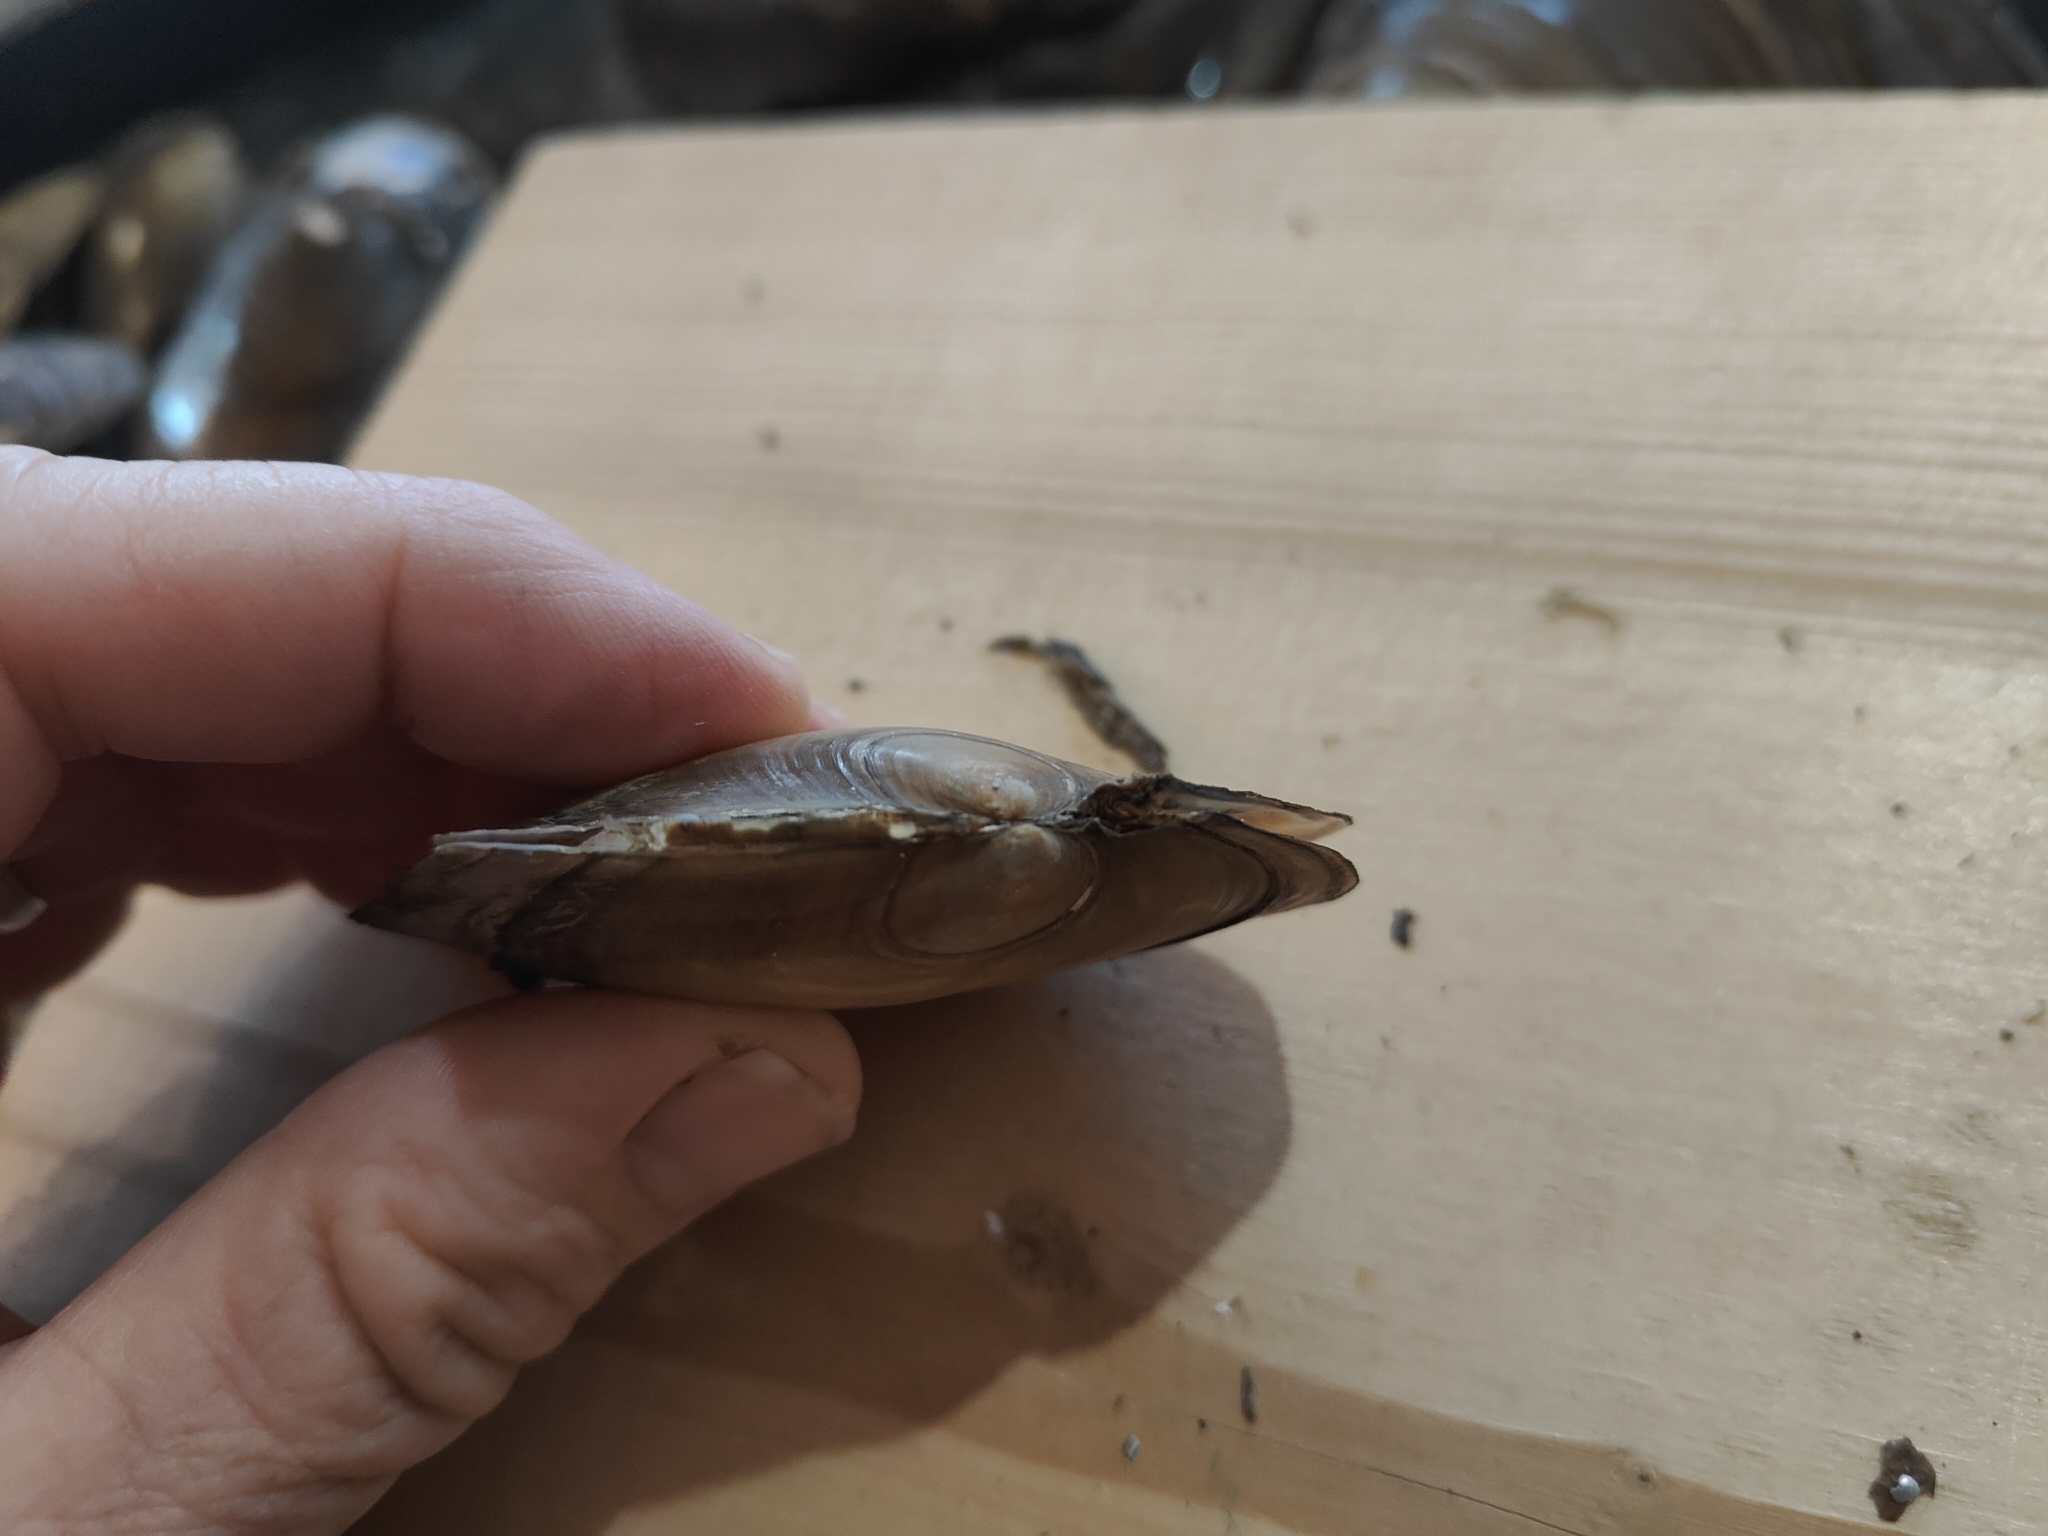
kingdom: Animalia
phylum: Mollusca
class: Bivalvia
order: Unionida
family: Unionidae
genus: Potamilus
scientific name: Potamilus ohiensis
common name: Pink papershell
